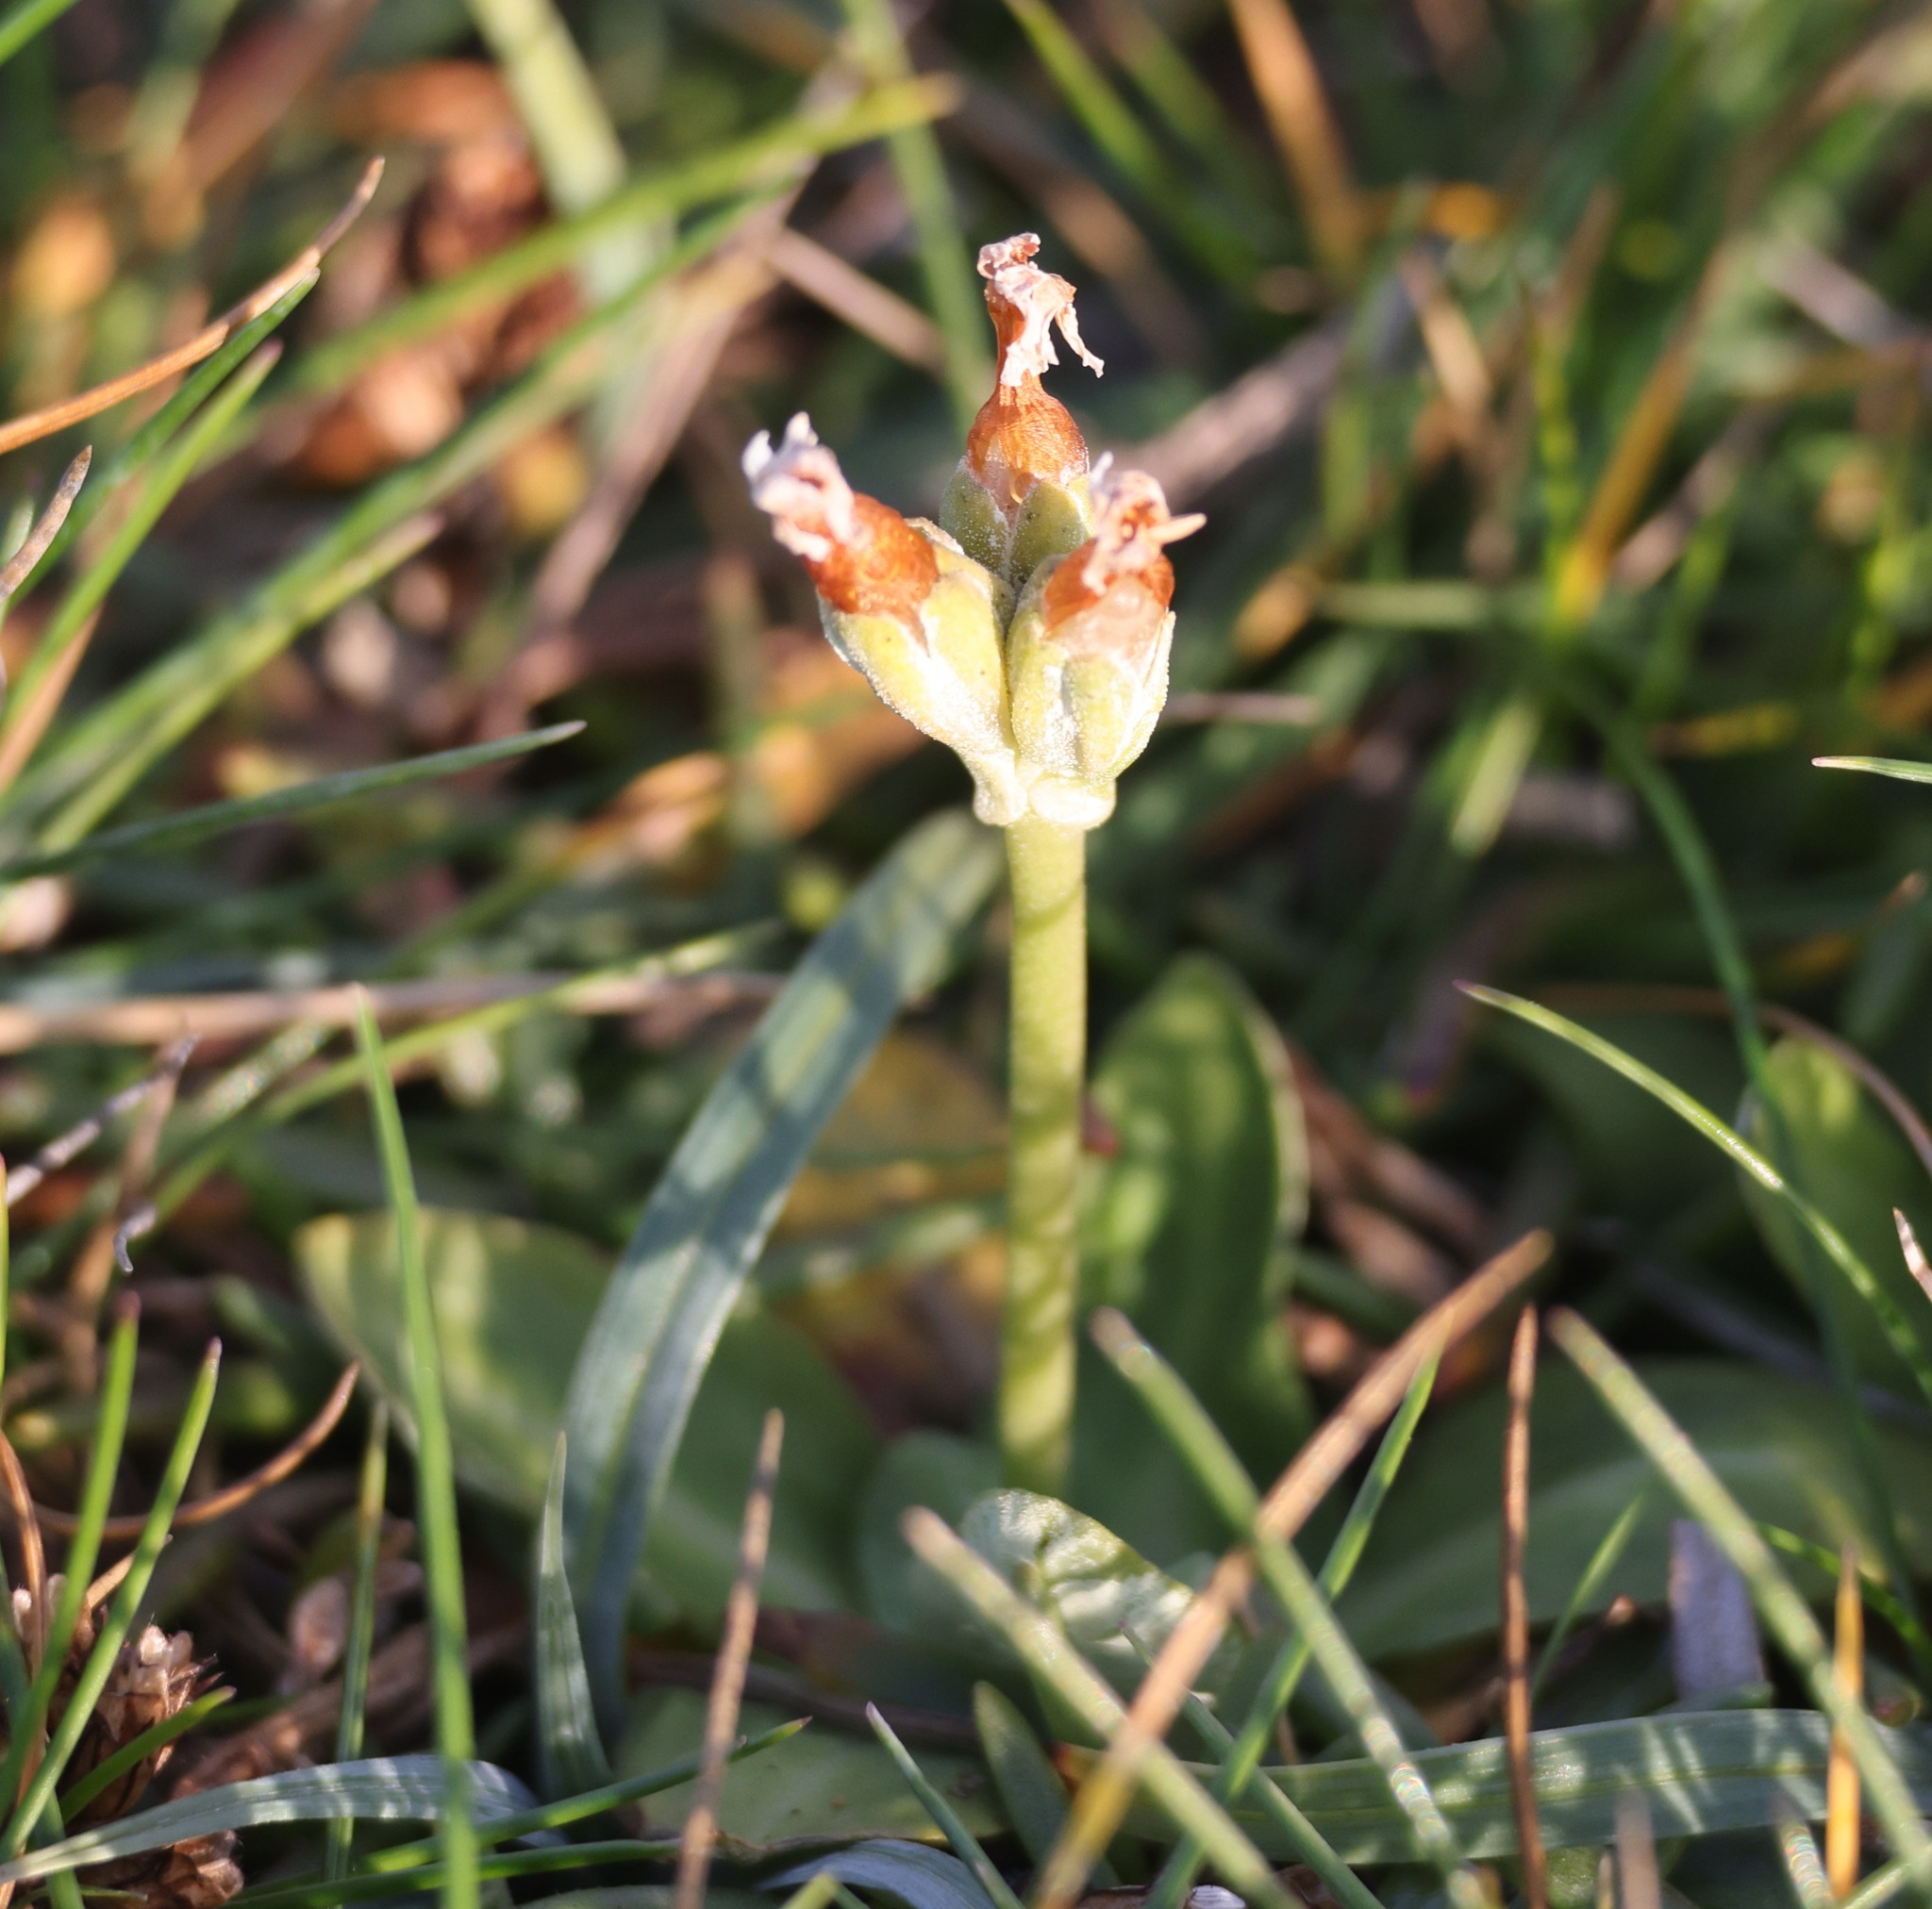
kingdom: Plantae
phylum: Tracheophyta
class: Magnoliopsida
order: Ericales
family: Primulaceae
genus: Primula
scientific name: Primula scotica
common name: Scottish primrose
